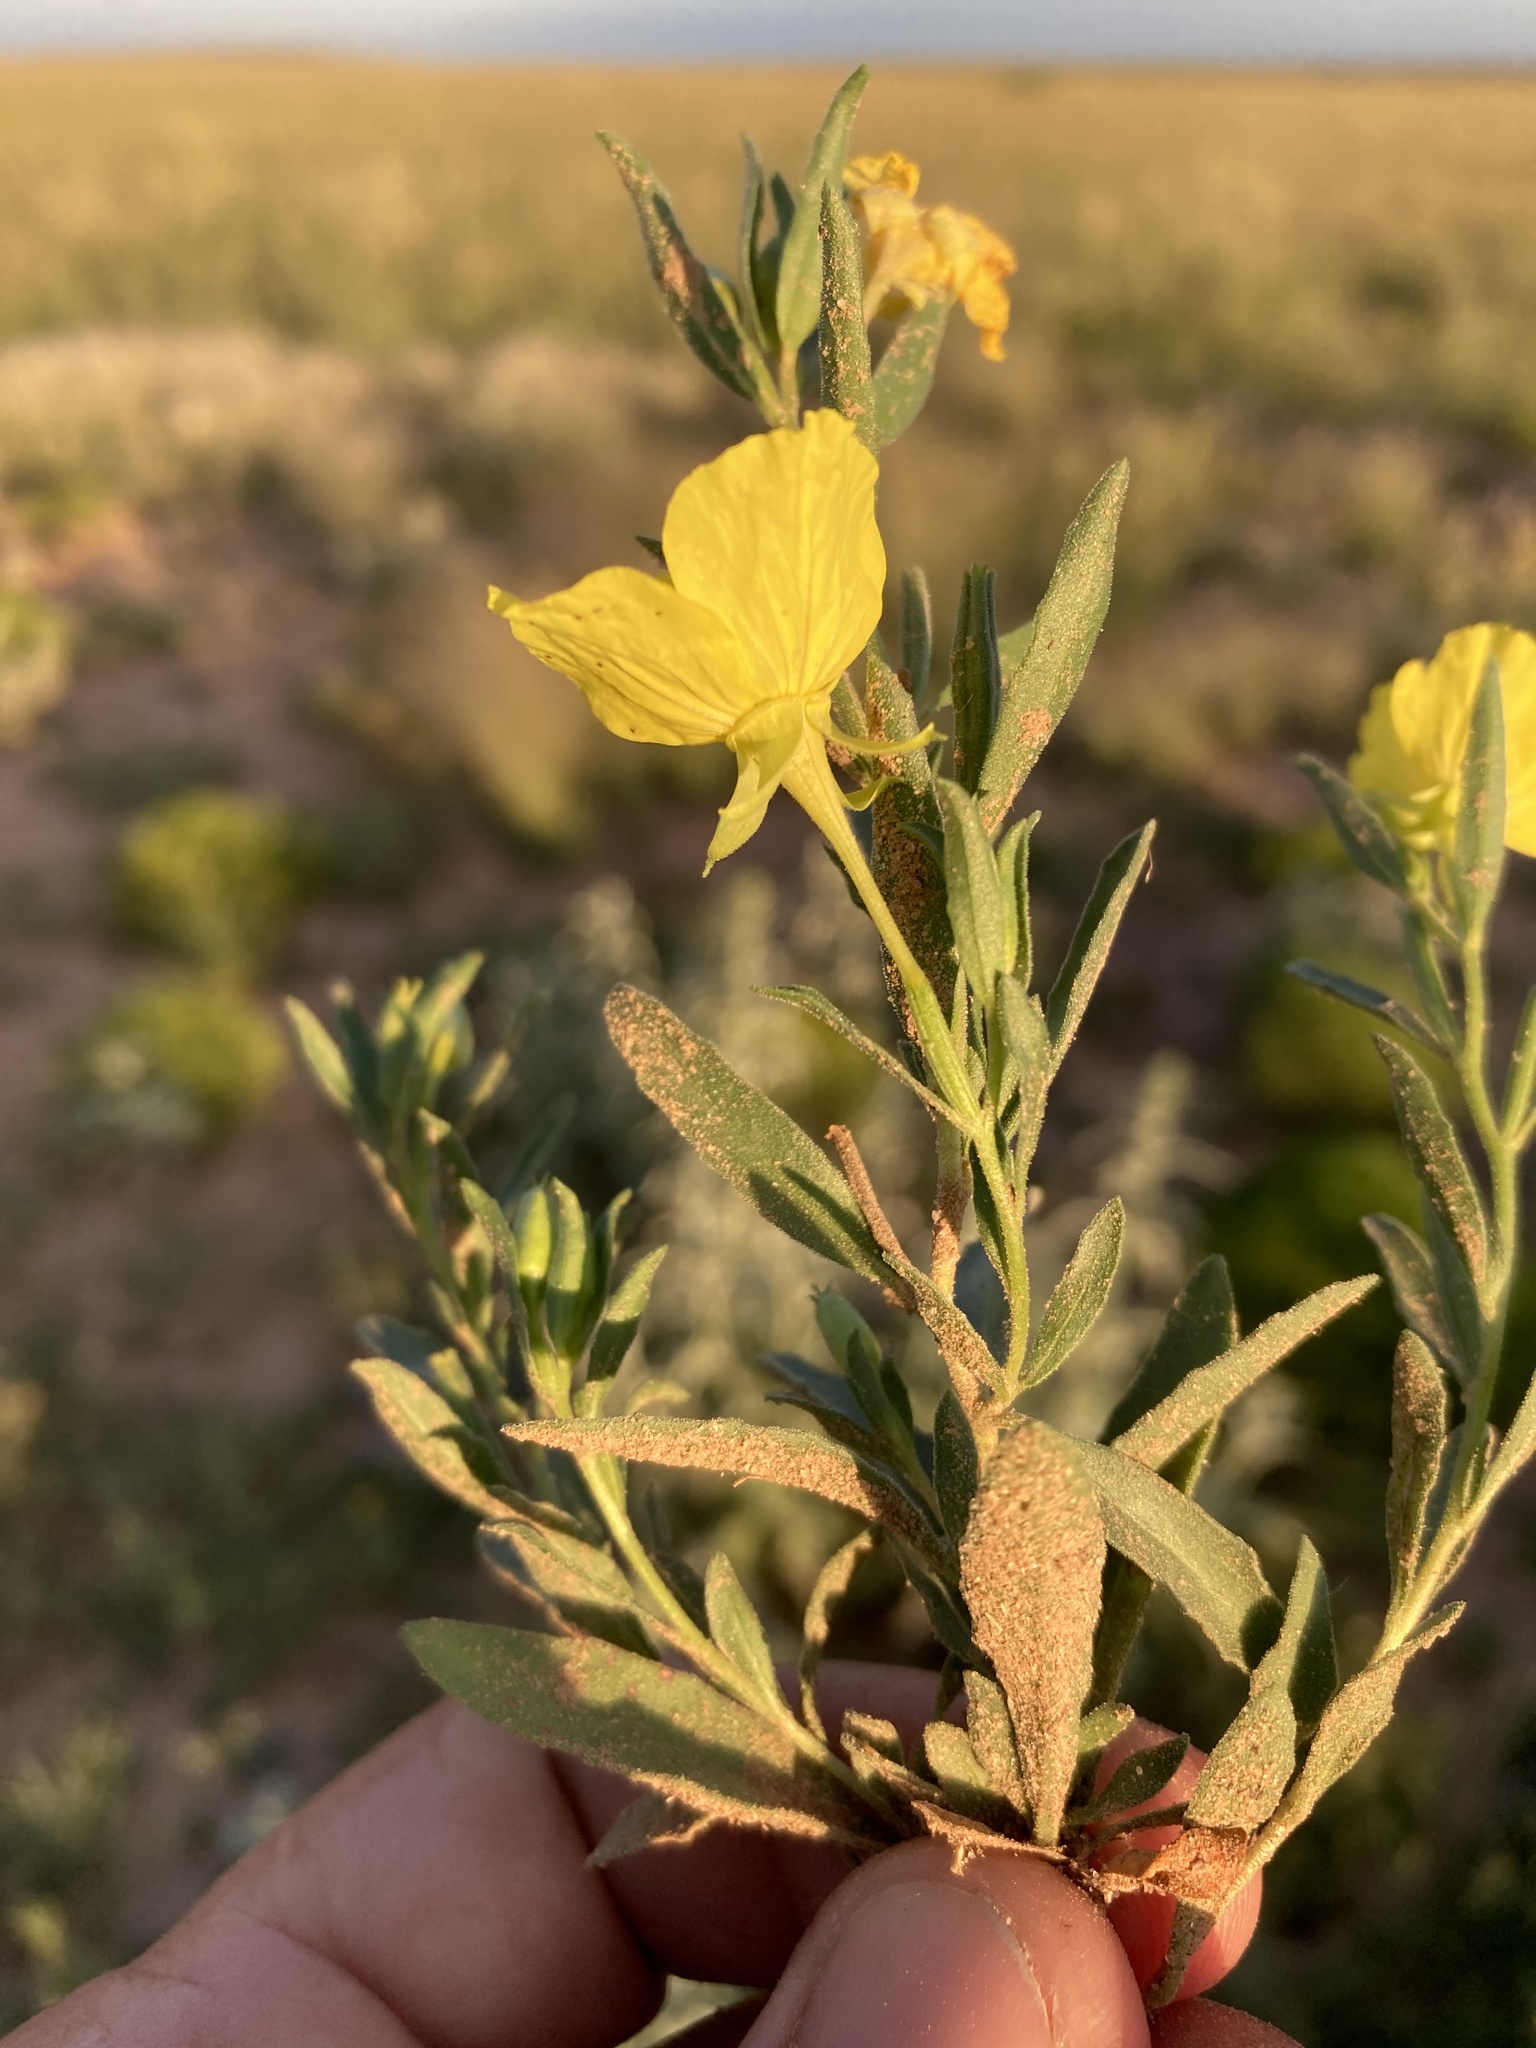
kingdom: Plantae
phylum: Tracheophyta
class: Magnoliopsida
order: Myrtales
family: Onagraceae
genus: Oenothera
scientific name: Oenothera tubicula
